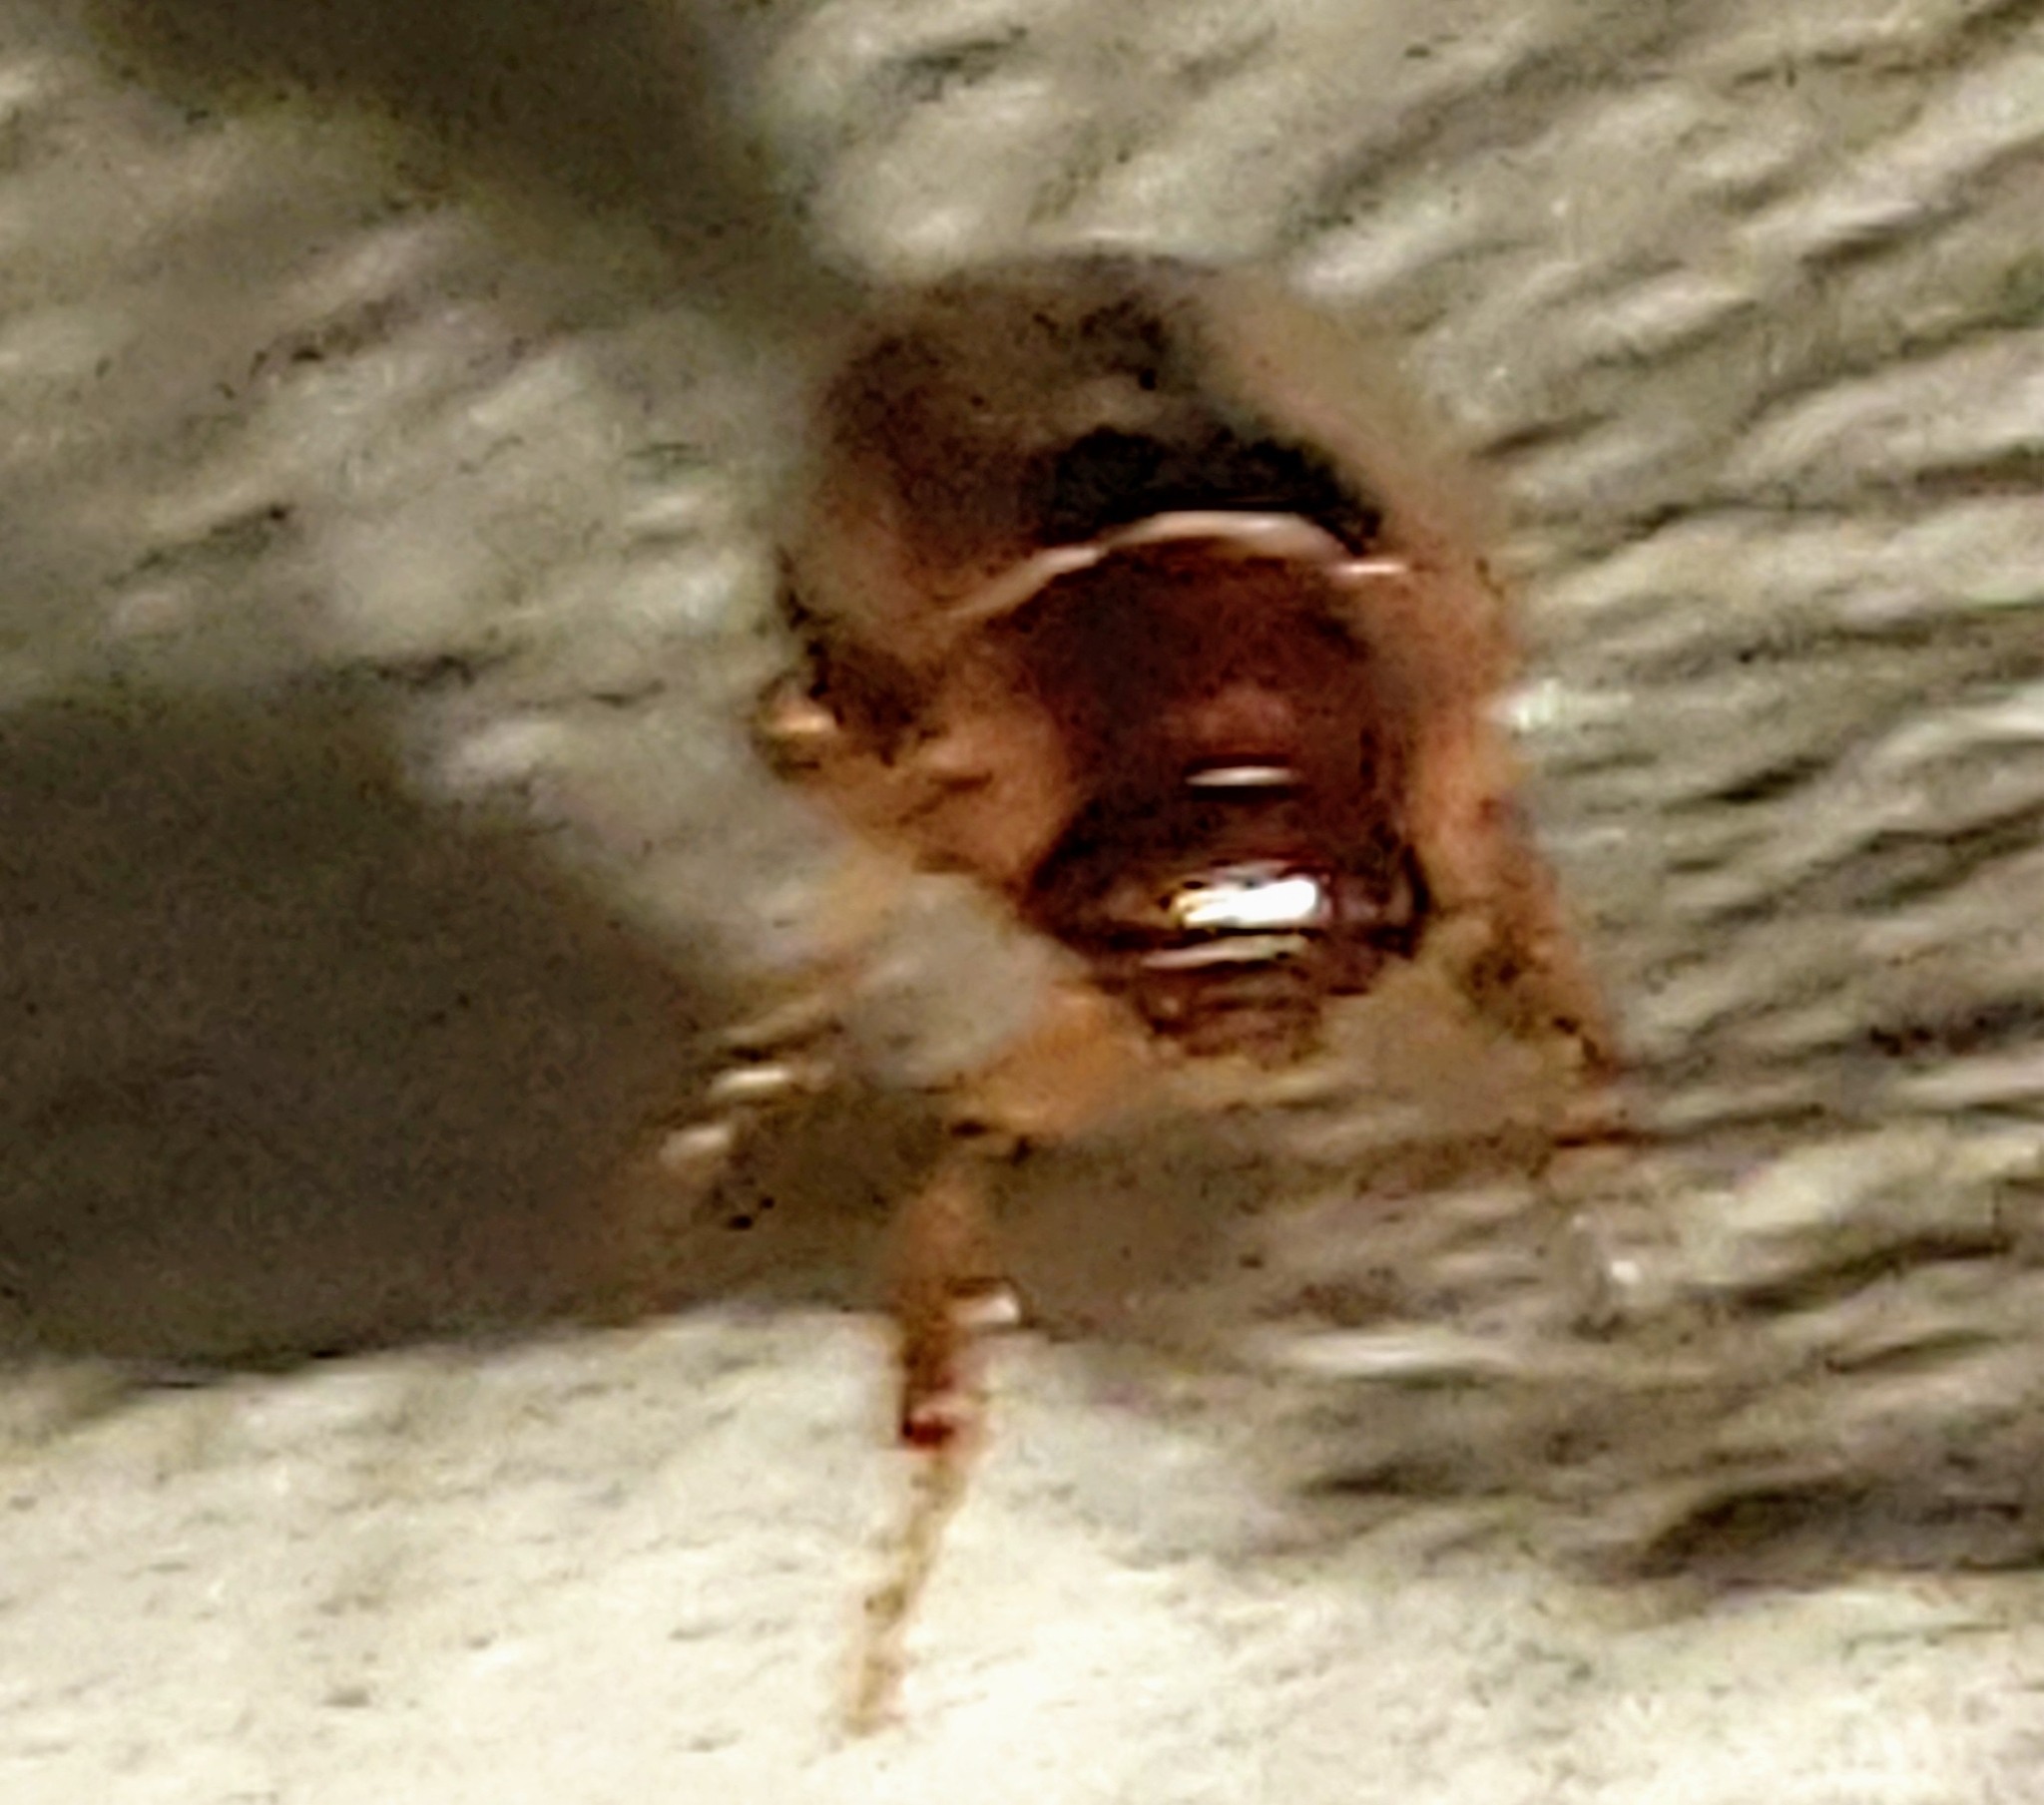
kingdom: Animalia
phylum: Arthropoda
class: Insecta
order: Coleoptera
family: Scarabaeidae
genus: Phyllophaga
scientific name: Phyllophaga bruneri
